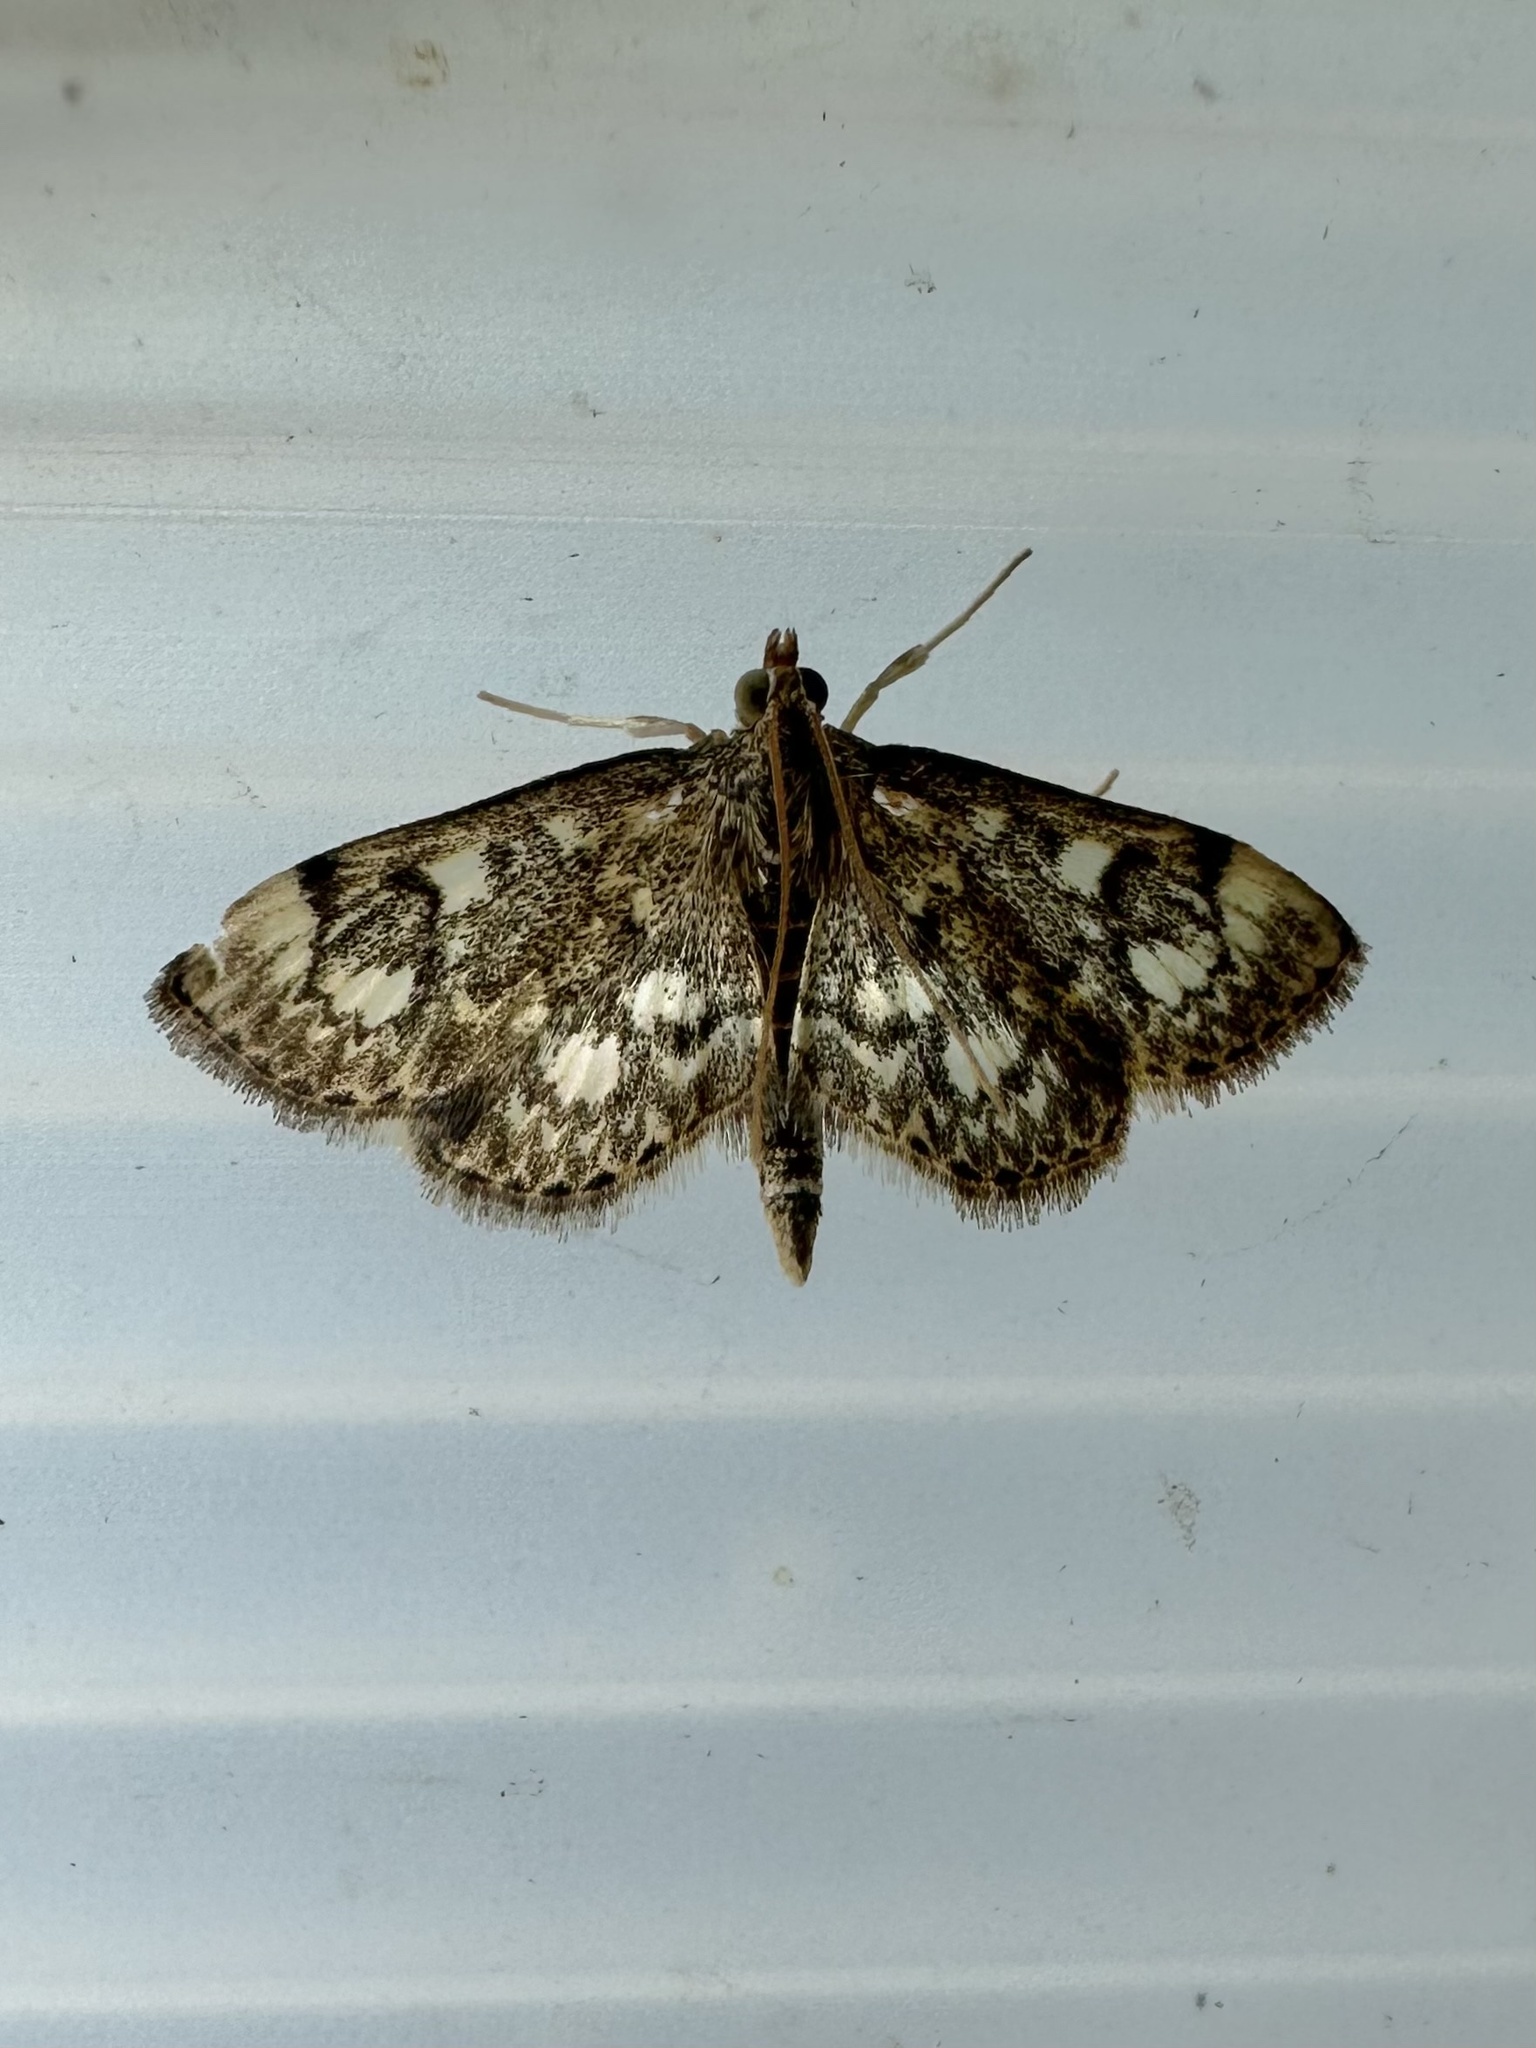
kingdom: Animalia
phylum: Arthropoda
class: Insecta
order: Lepidoptera
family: Crambidae
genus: Anania
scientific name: Anania
